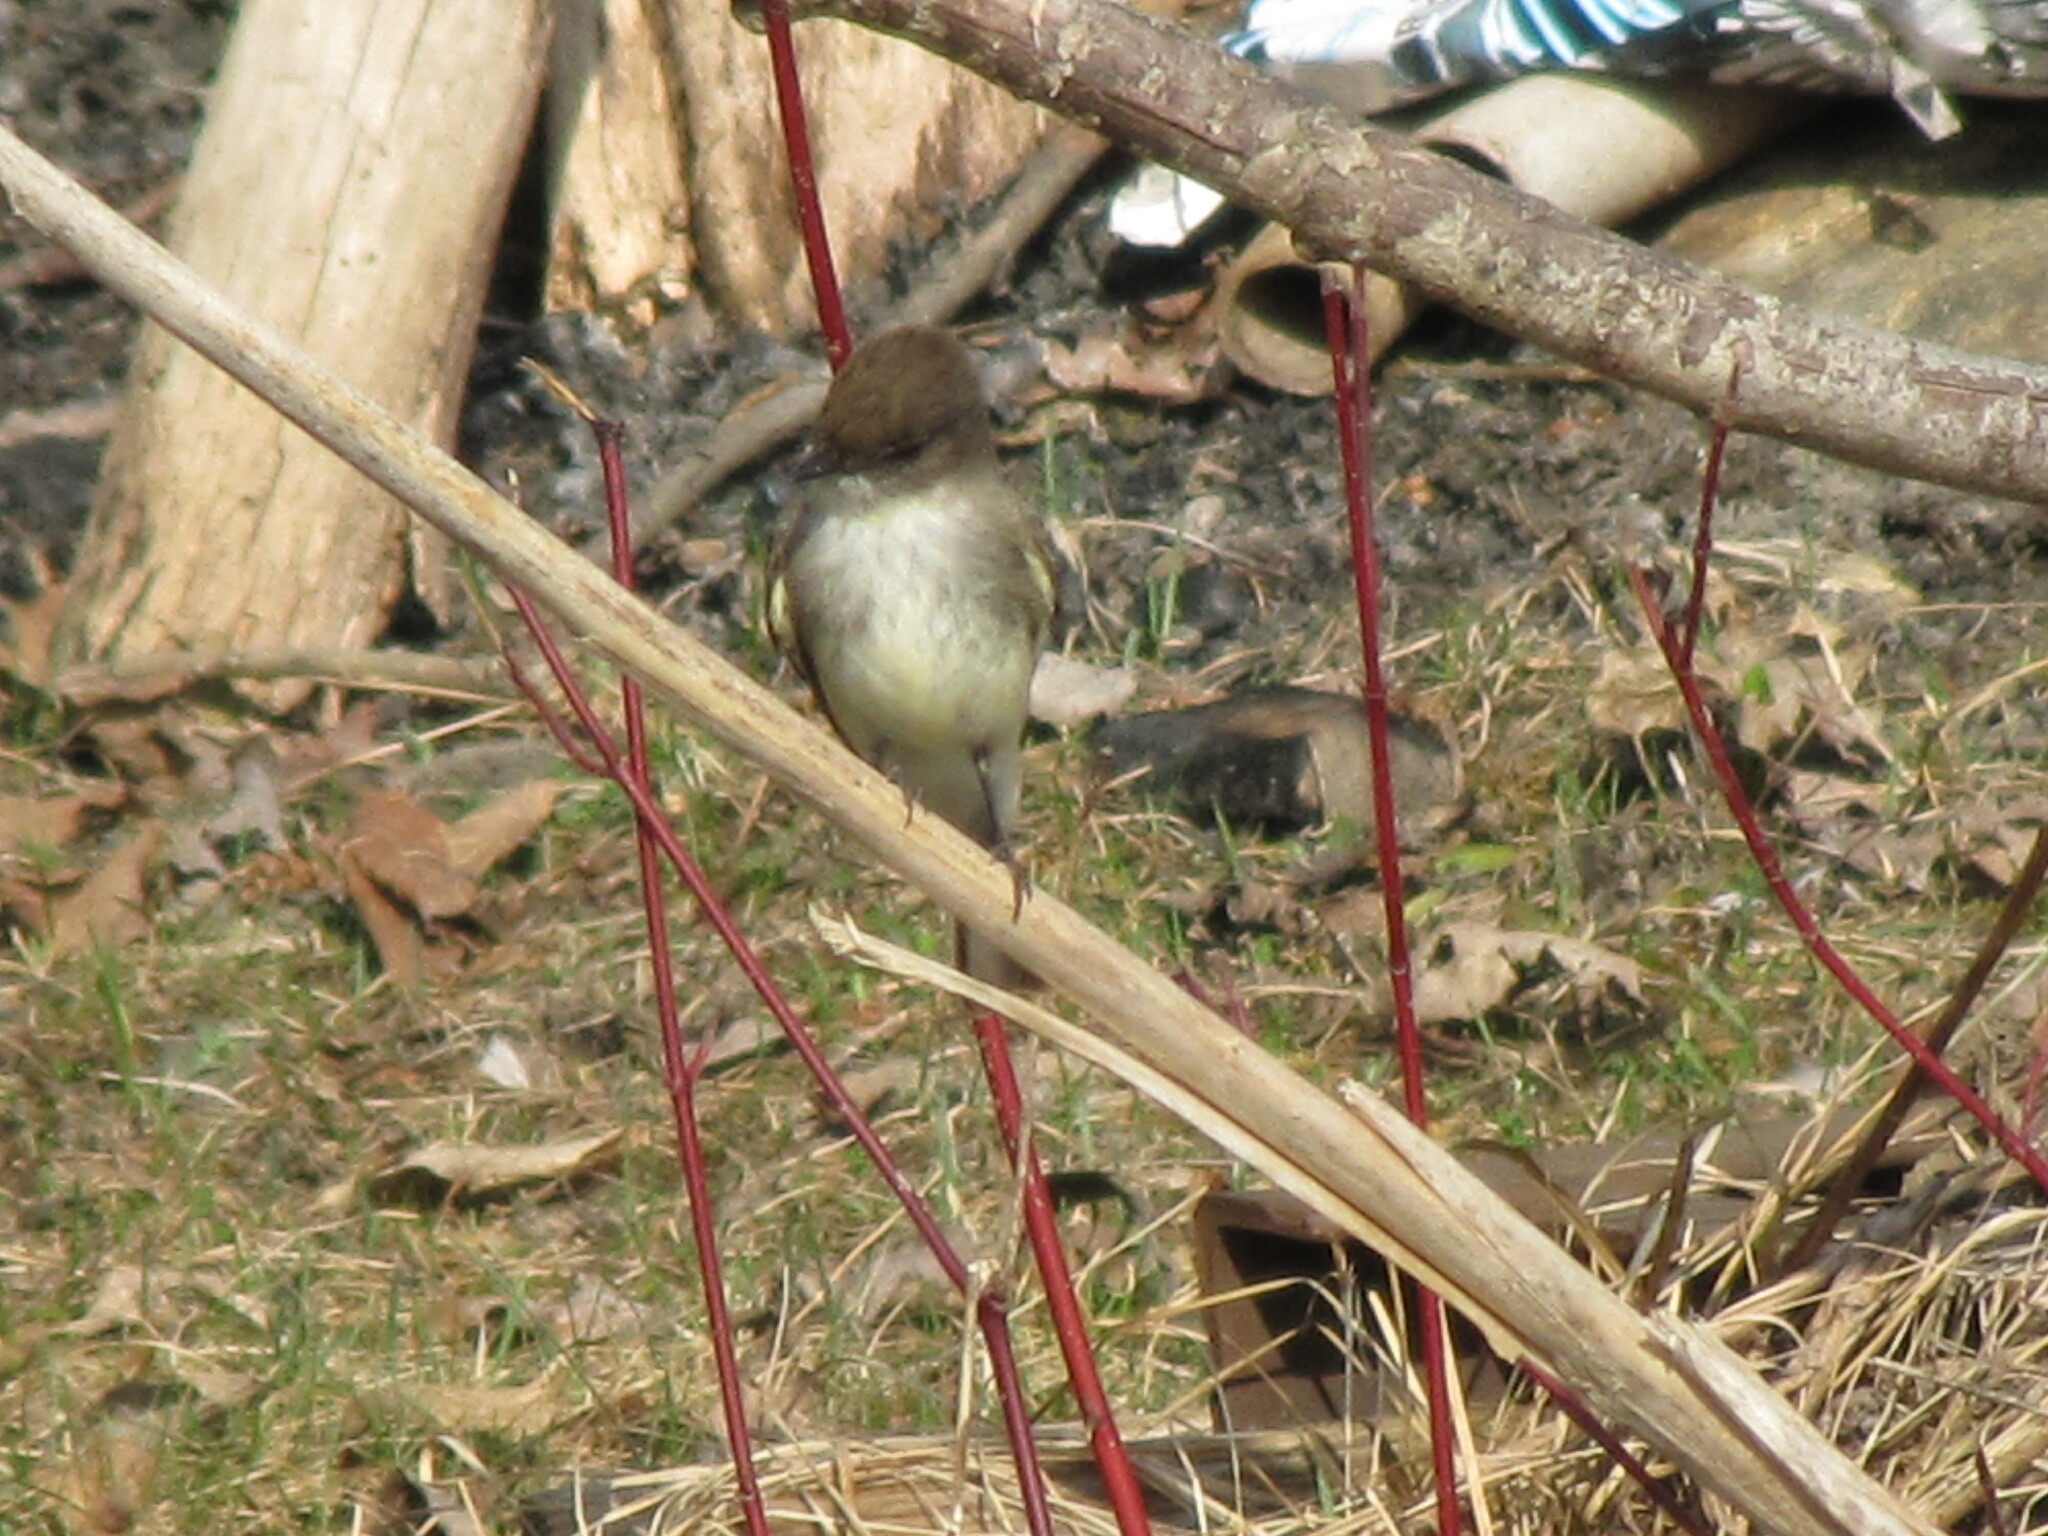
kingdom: Animalia
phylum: Chordata
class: Aves
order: Passeriformes
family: Tyrannidae
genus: Sayornis
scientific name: Sayornis phoebe
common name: Eastern phoebe
